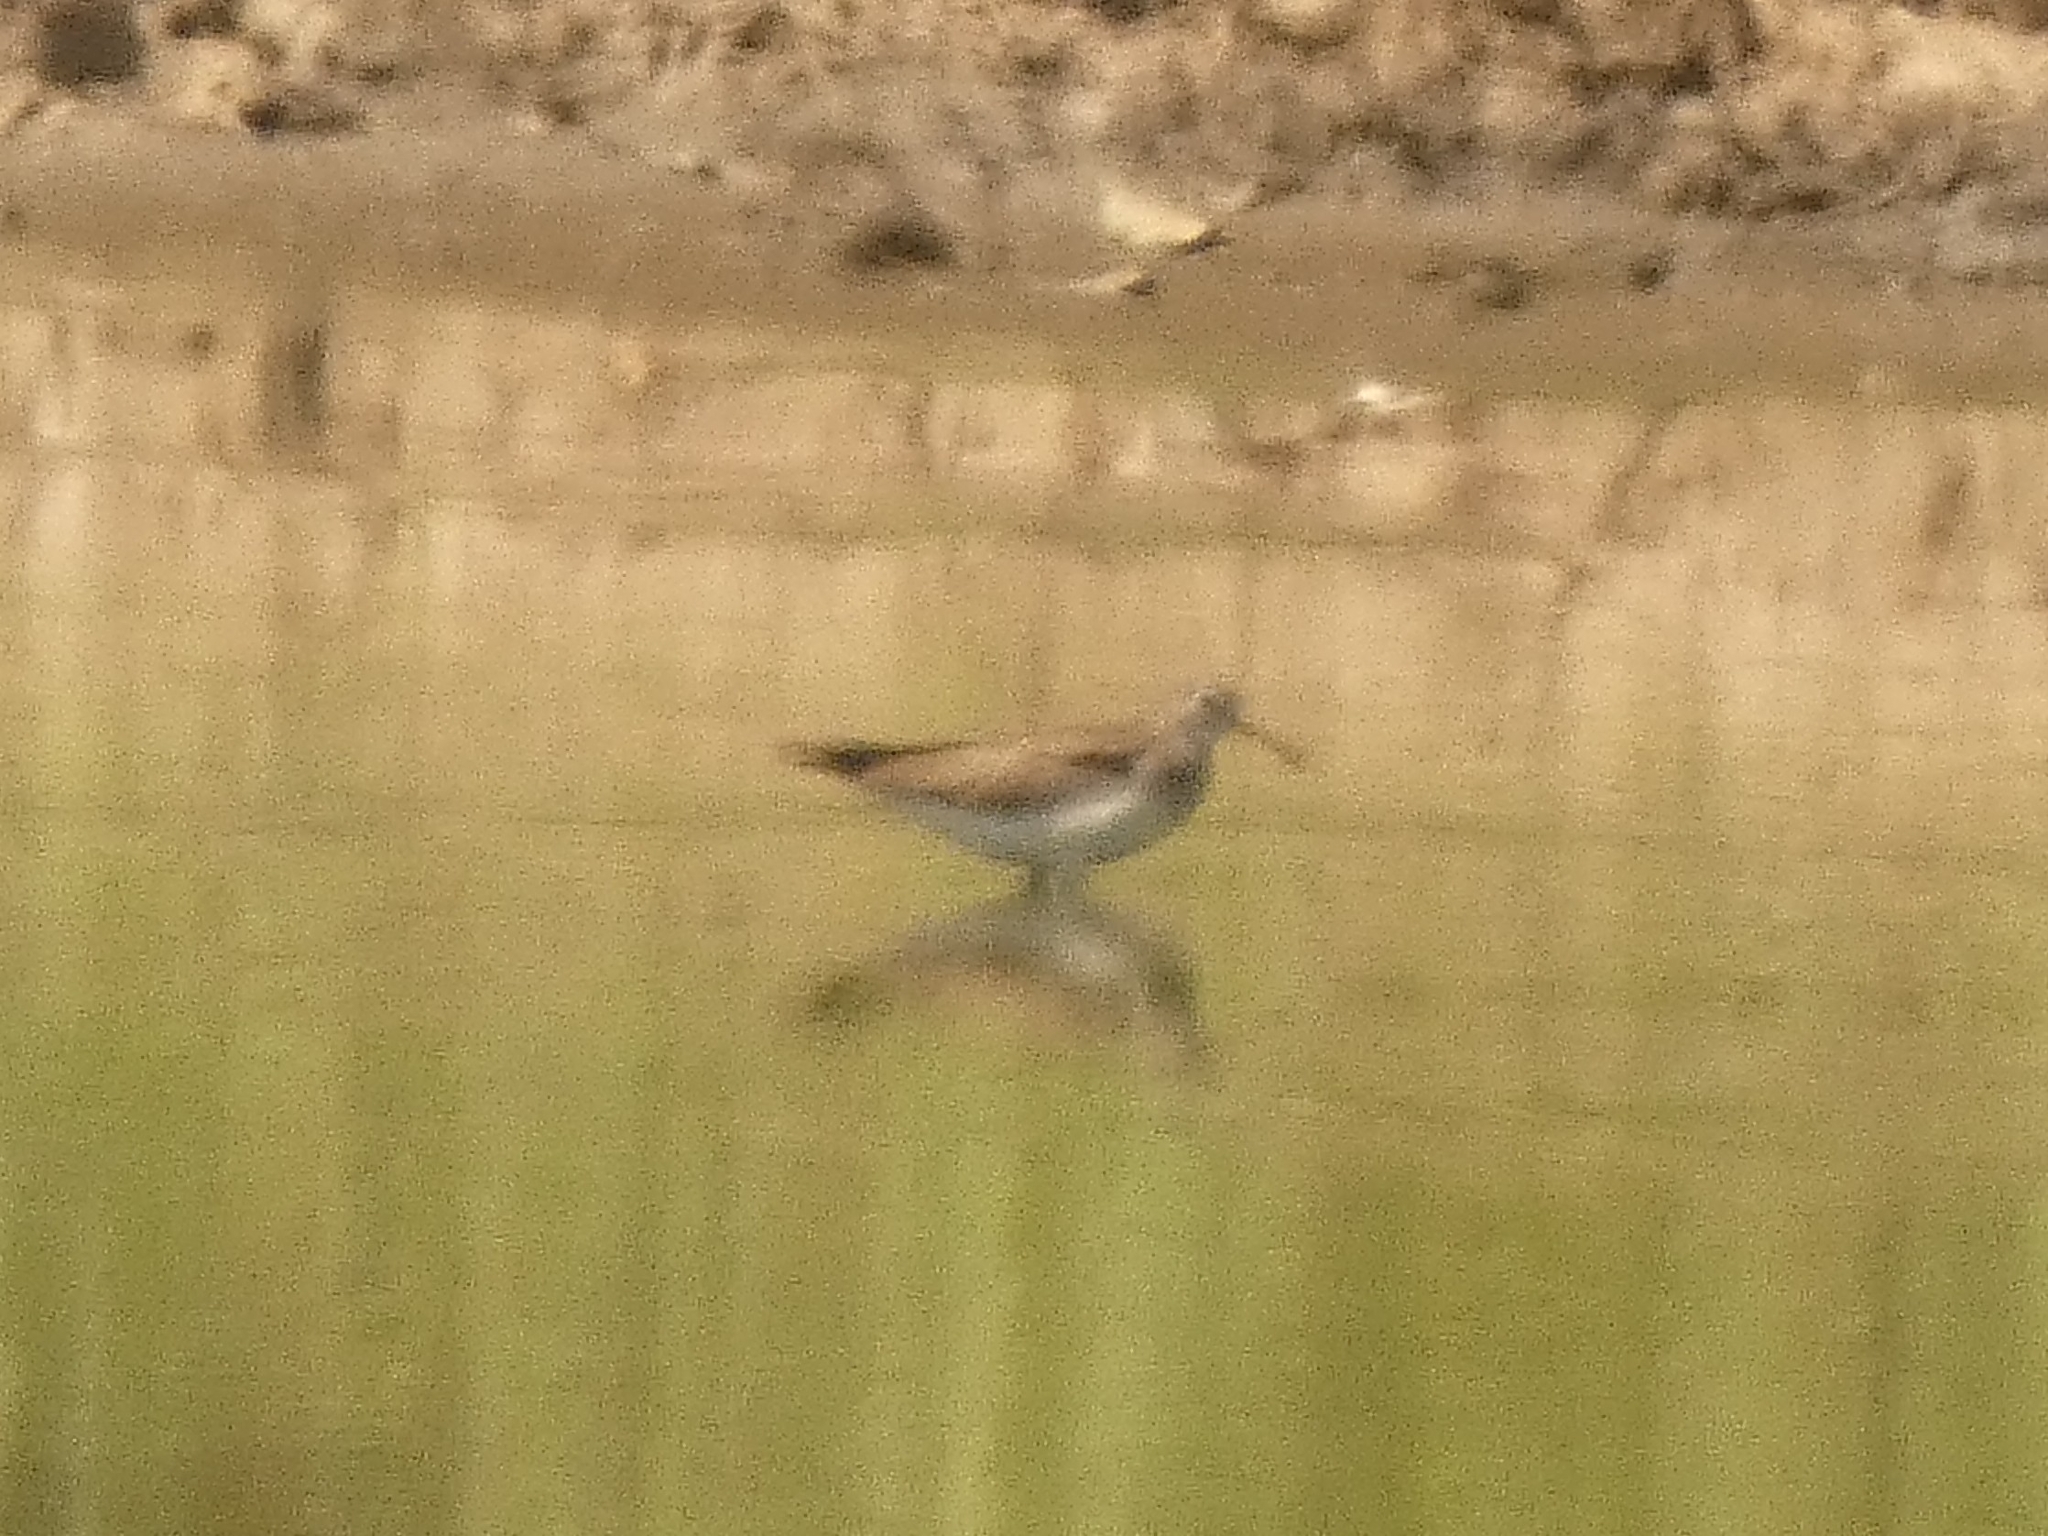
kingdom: Animalia
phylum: Chordata
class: Aves
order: Charadriiformes
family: Scolopacidae
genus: Tringa
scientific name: Tringa solitaria
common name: Solitary sandpiper
